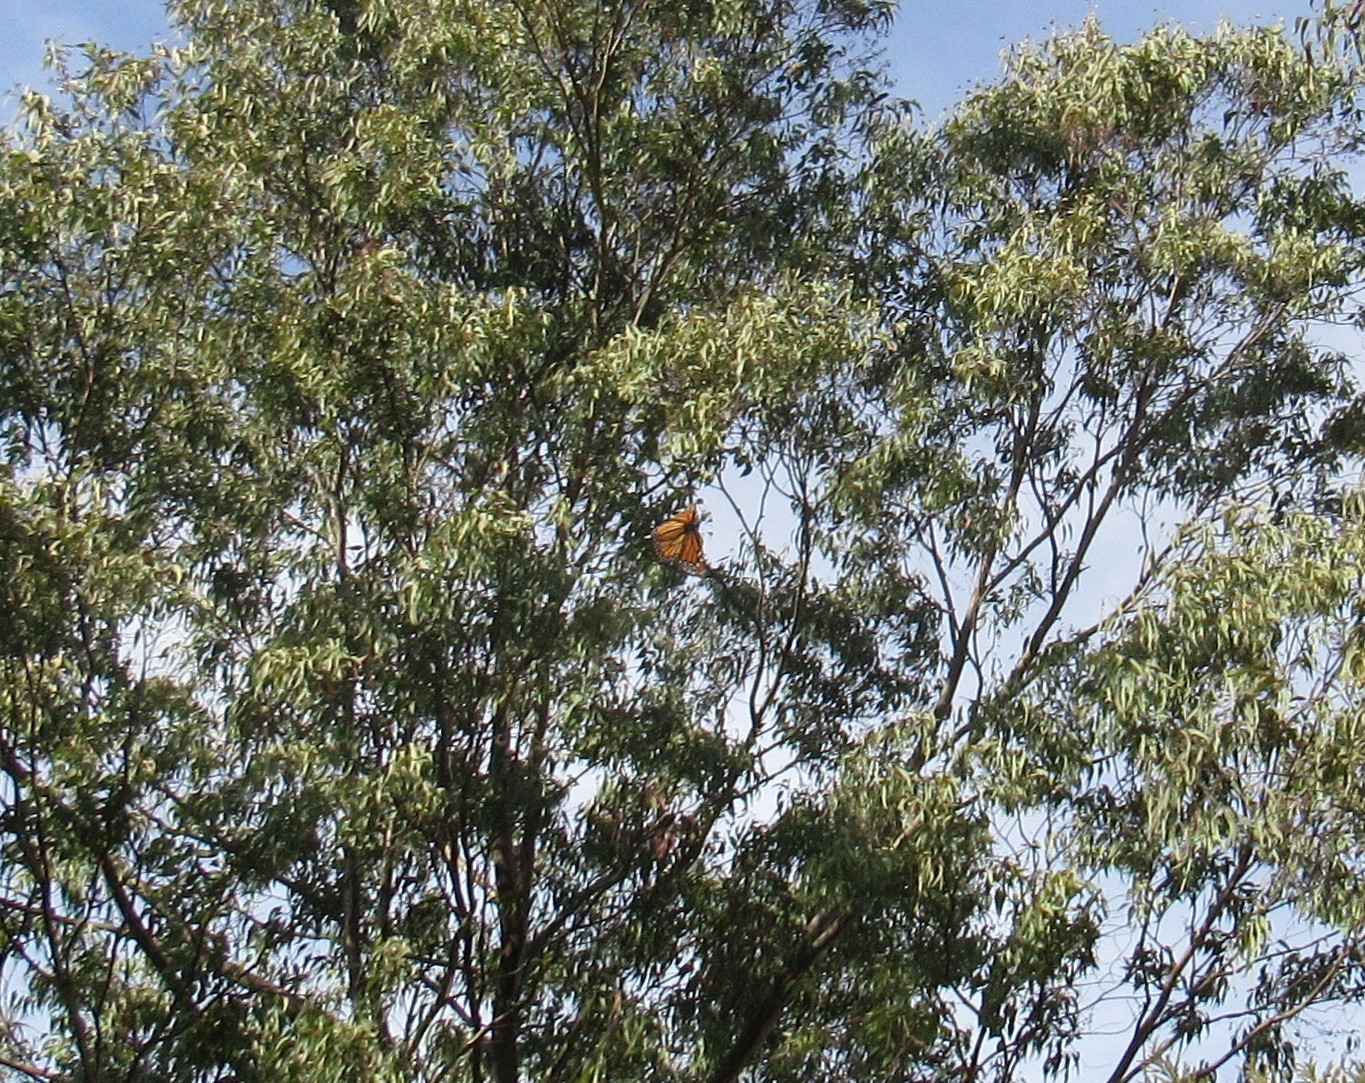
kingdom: Animalia
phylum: Arthropoda
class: Insecta
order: Lepidoptera
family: Nymphalidae
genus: Danaus
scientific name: Danaus plexippus
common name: Monarch
